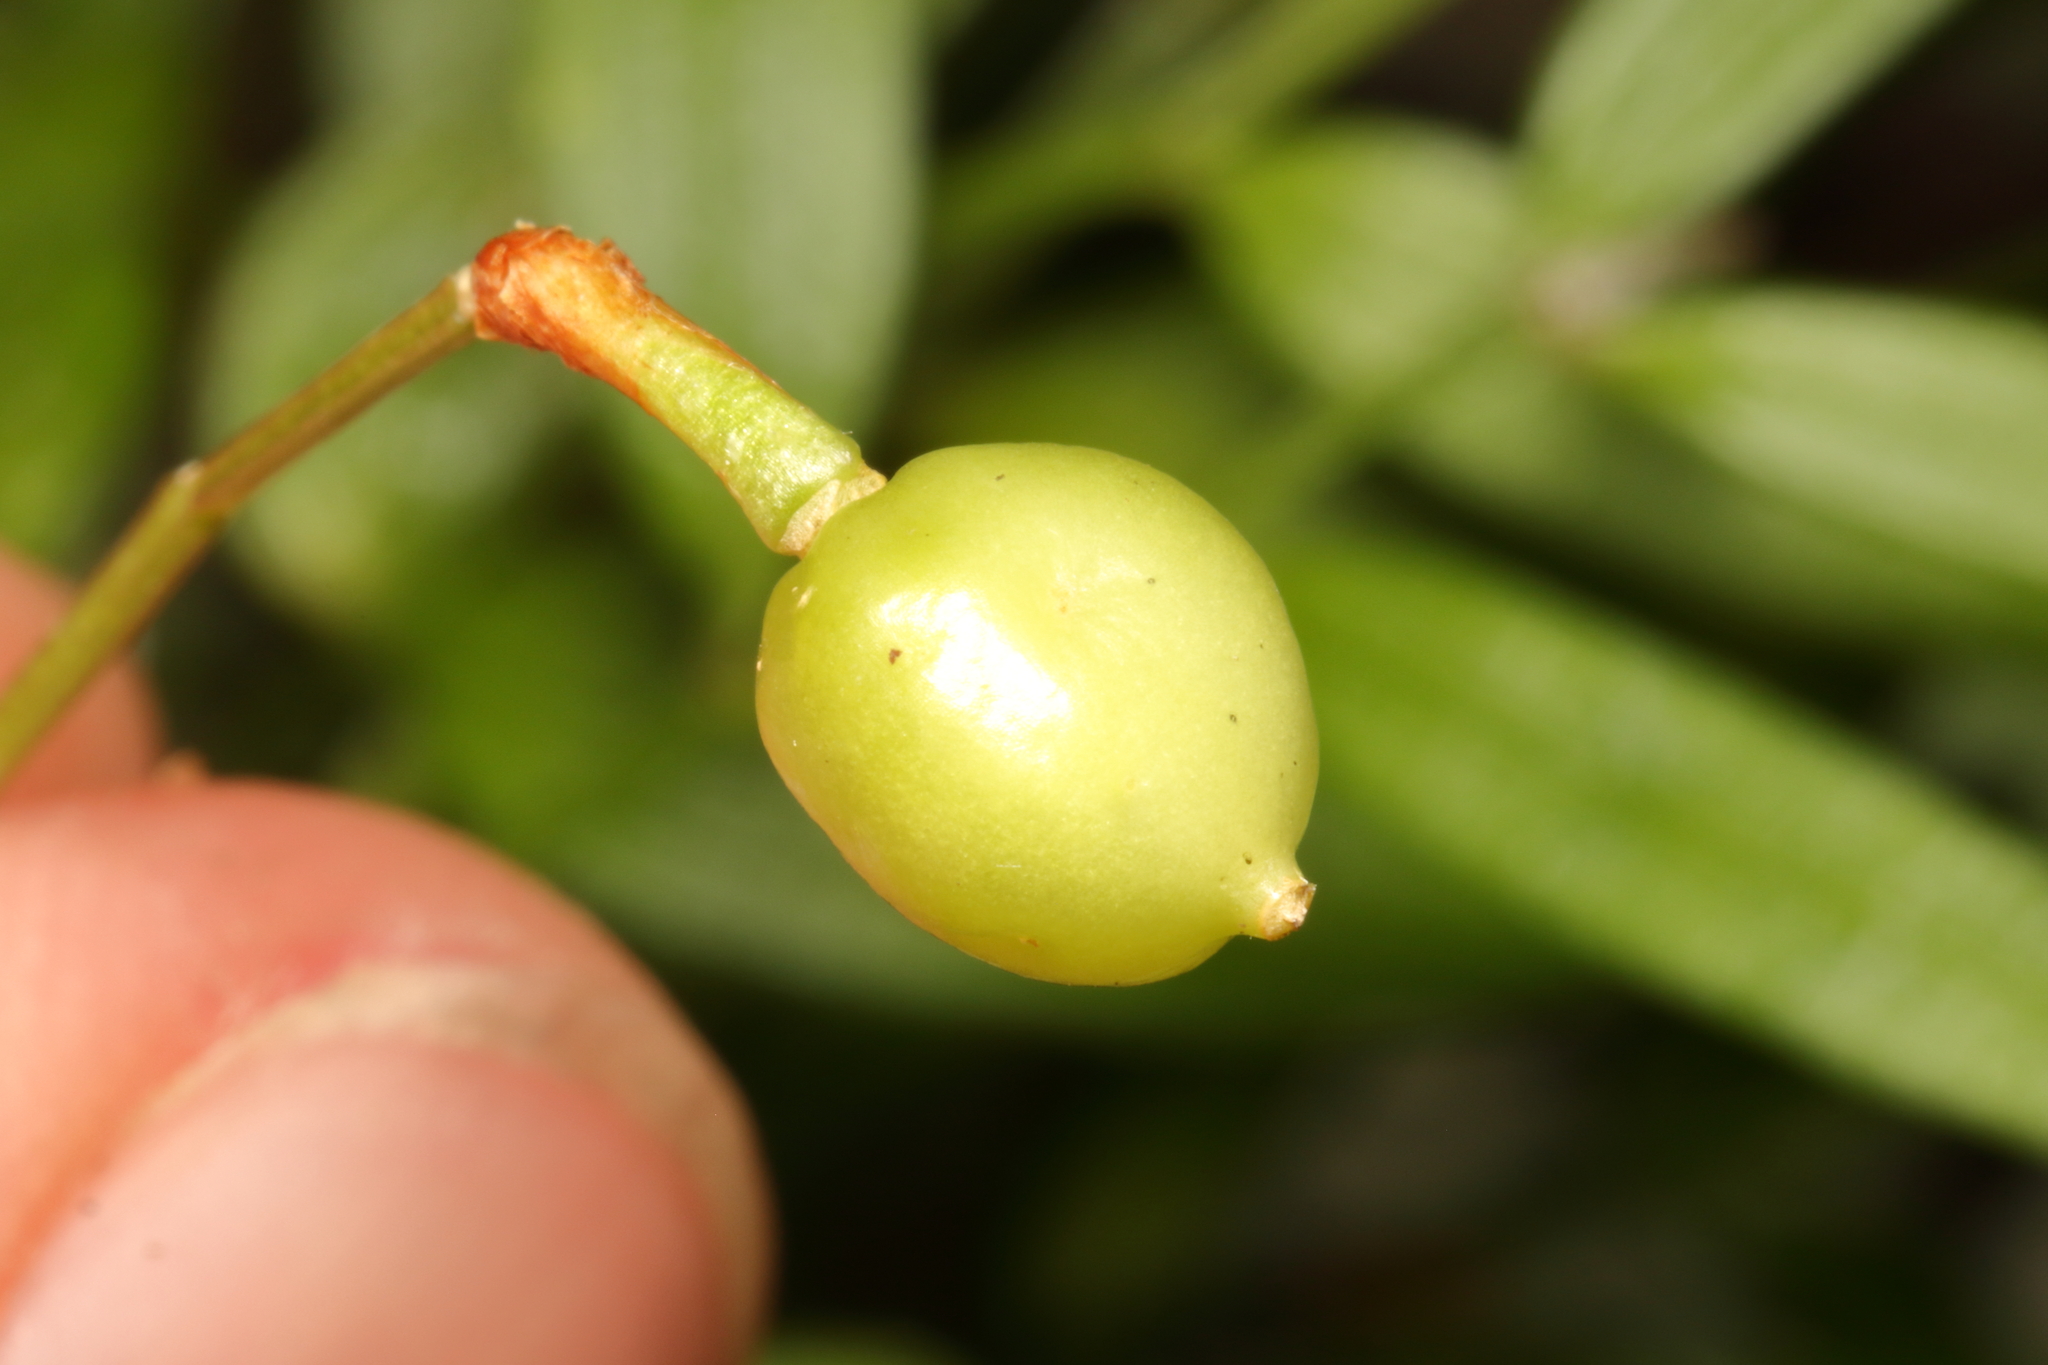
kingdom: Plantae
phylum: Tracheophyta
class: Liliopsida
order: Liliales
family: Alstroemeriaceae
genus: Luzuriaga
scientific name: Luzuriaga parviflora
